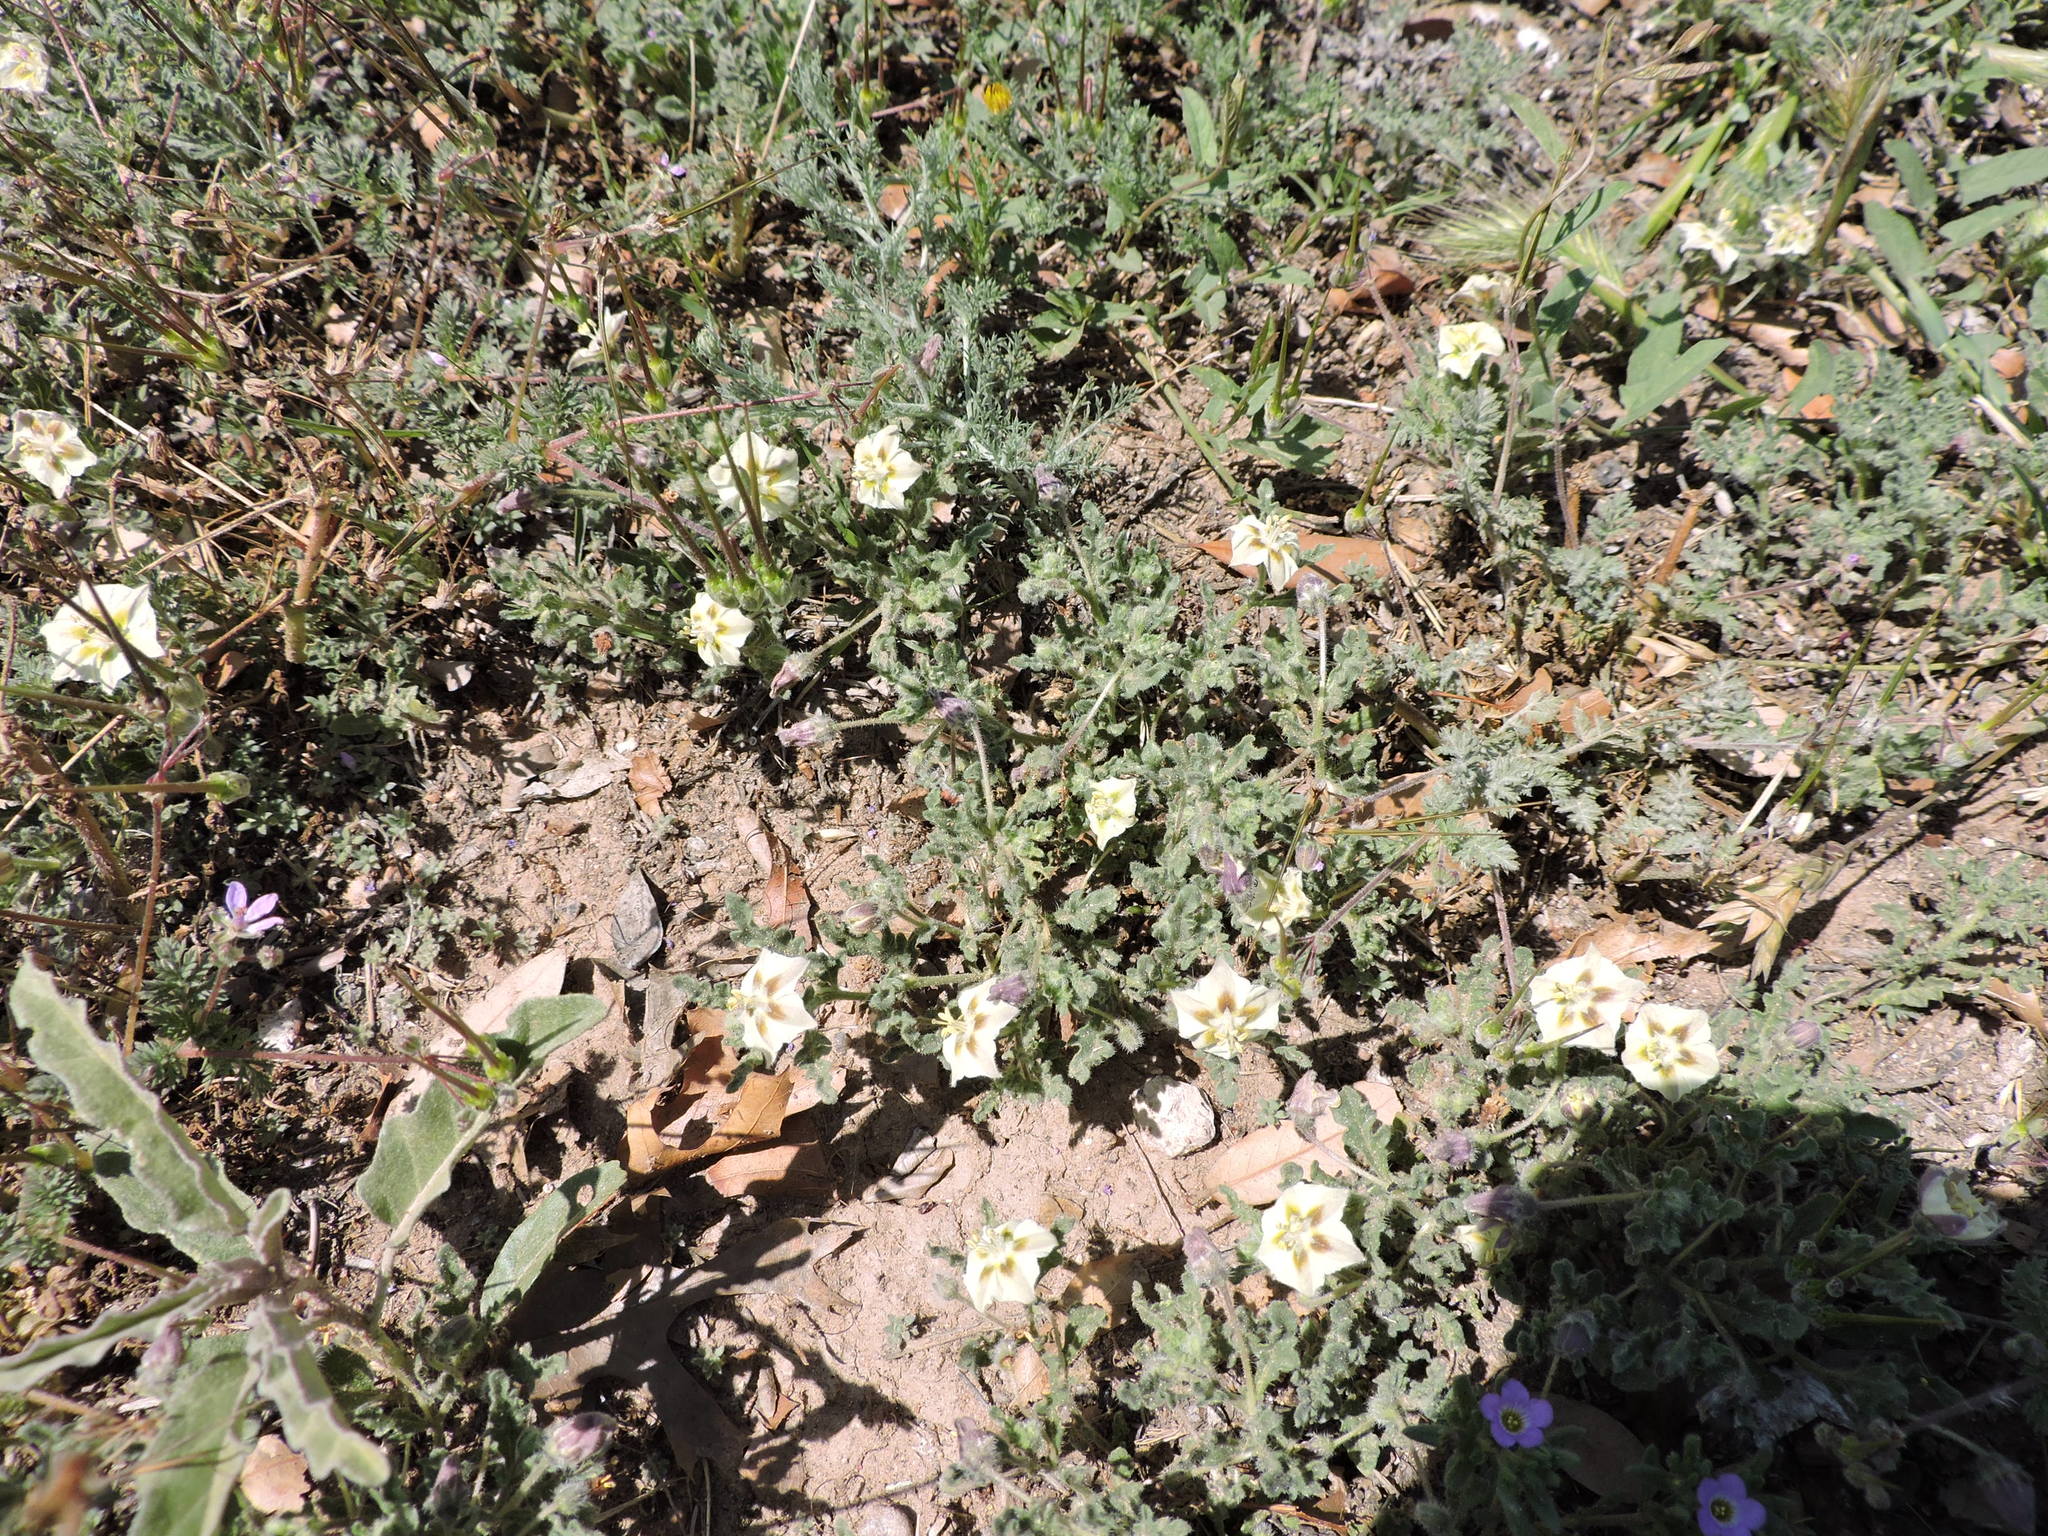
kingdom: Plantae
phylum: Tracheophyta
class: Magnoliopsida
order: Solanales
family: Solanaceae
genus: Chamaesaracha
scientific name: Chamaesaracha coniodes
